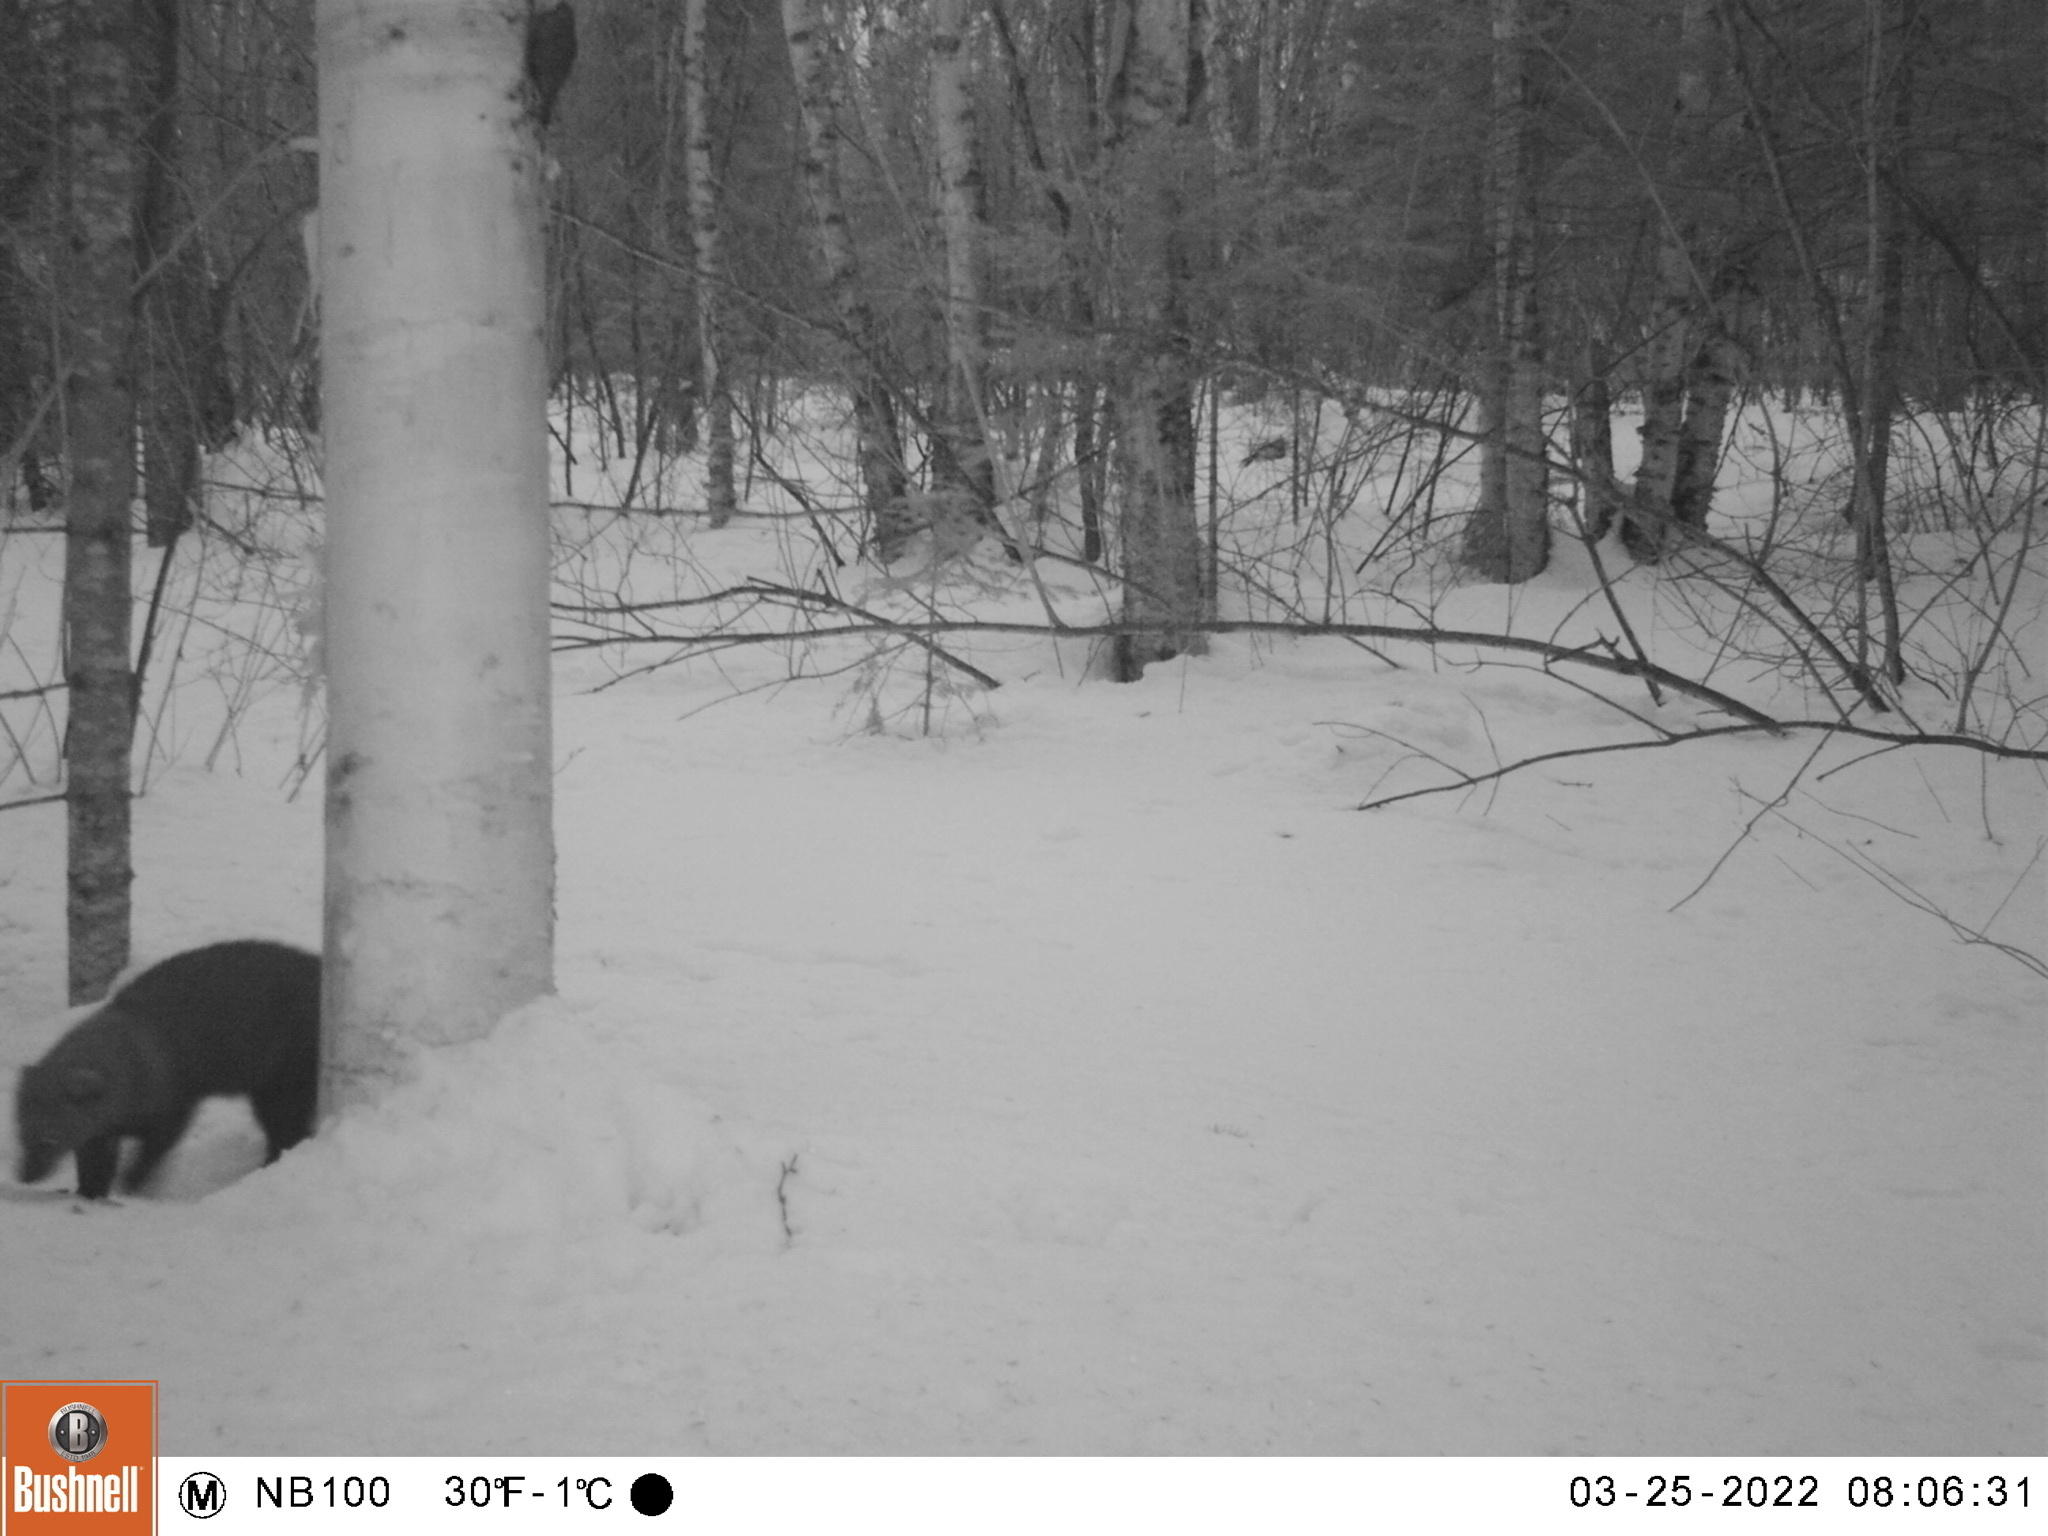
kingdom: Animalia
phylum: Chordata
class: Mammalia
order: Carnivora
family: Mustelidae
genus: Pekania
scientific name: Pekania pennanti
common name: Fisher
